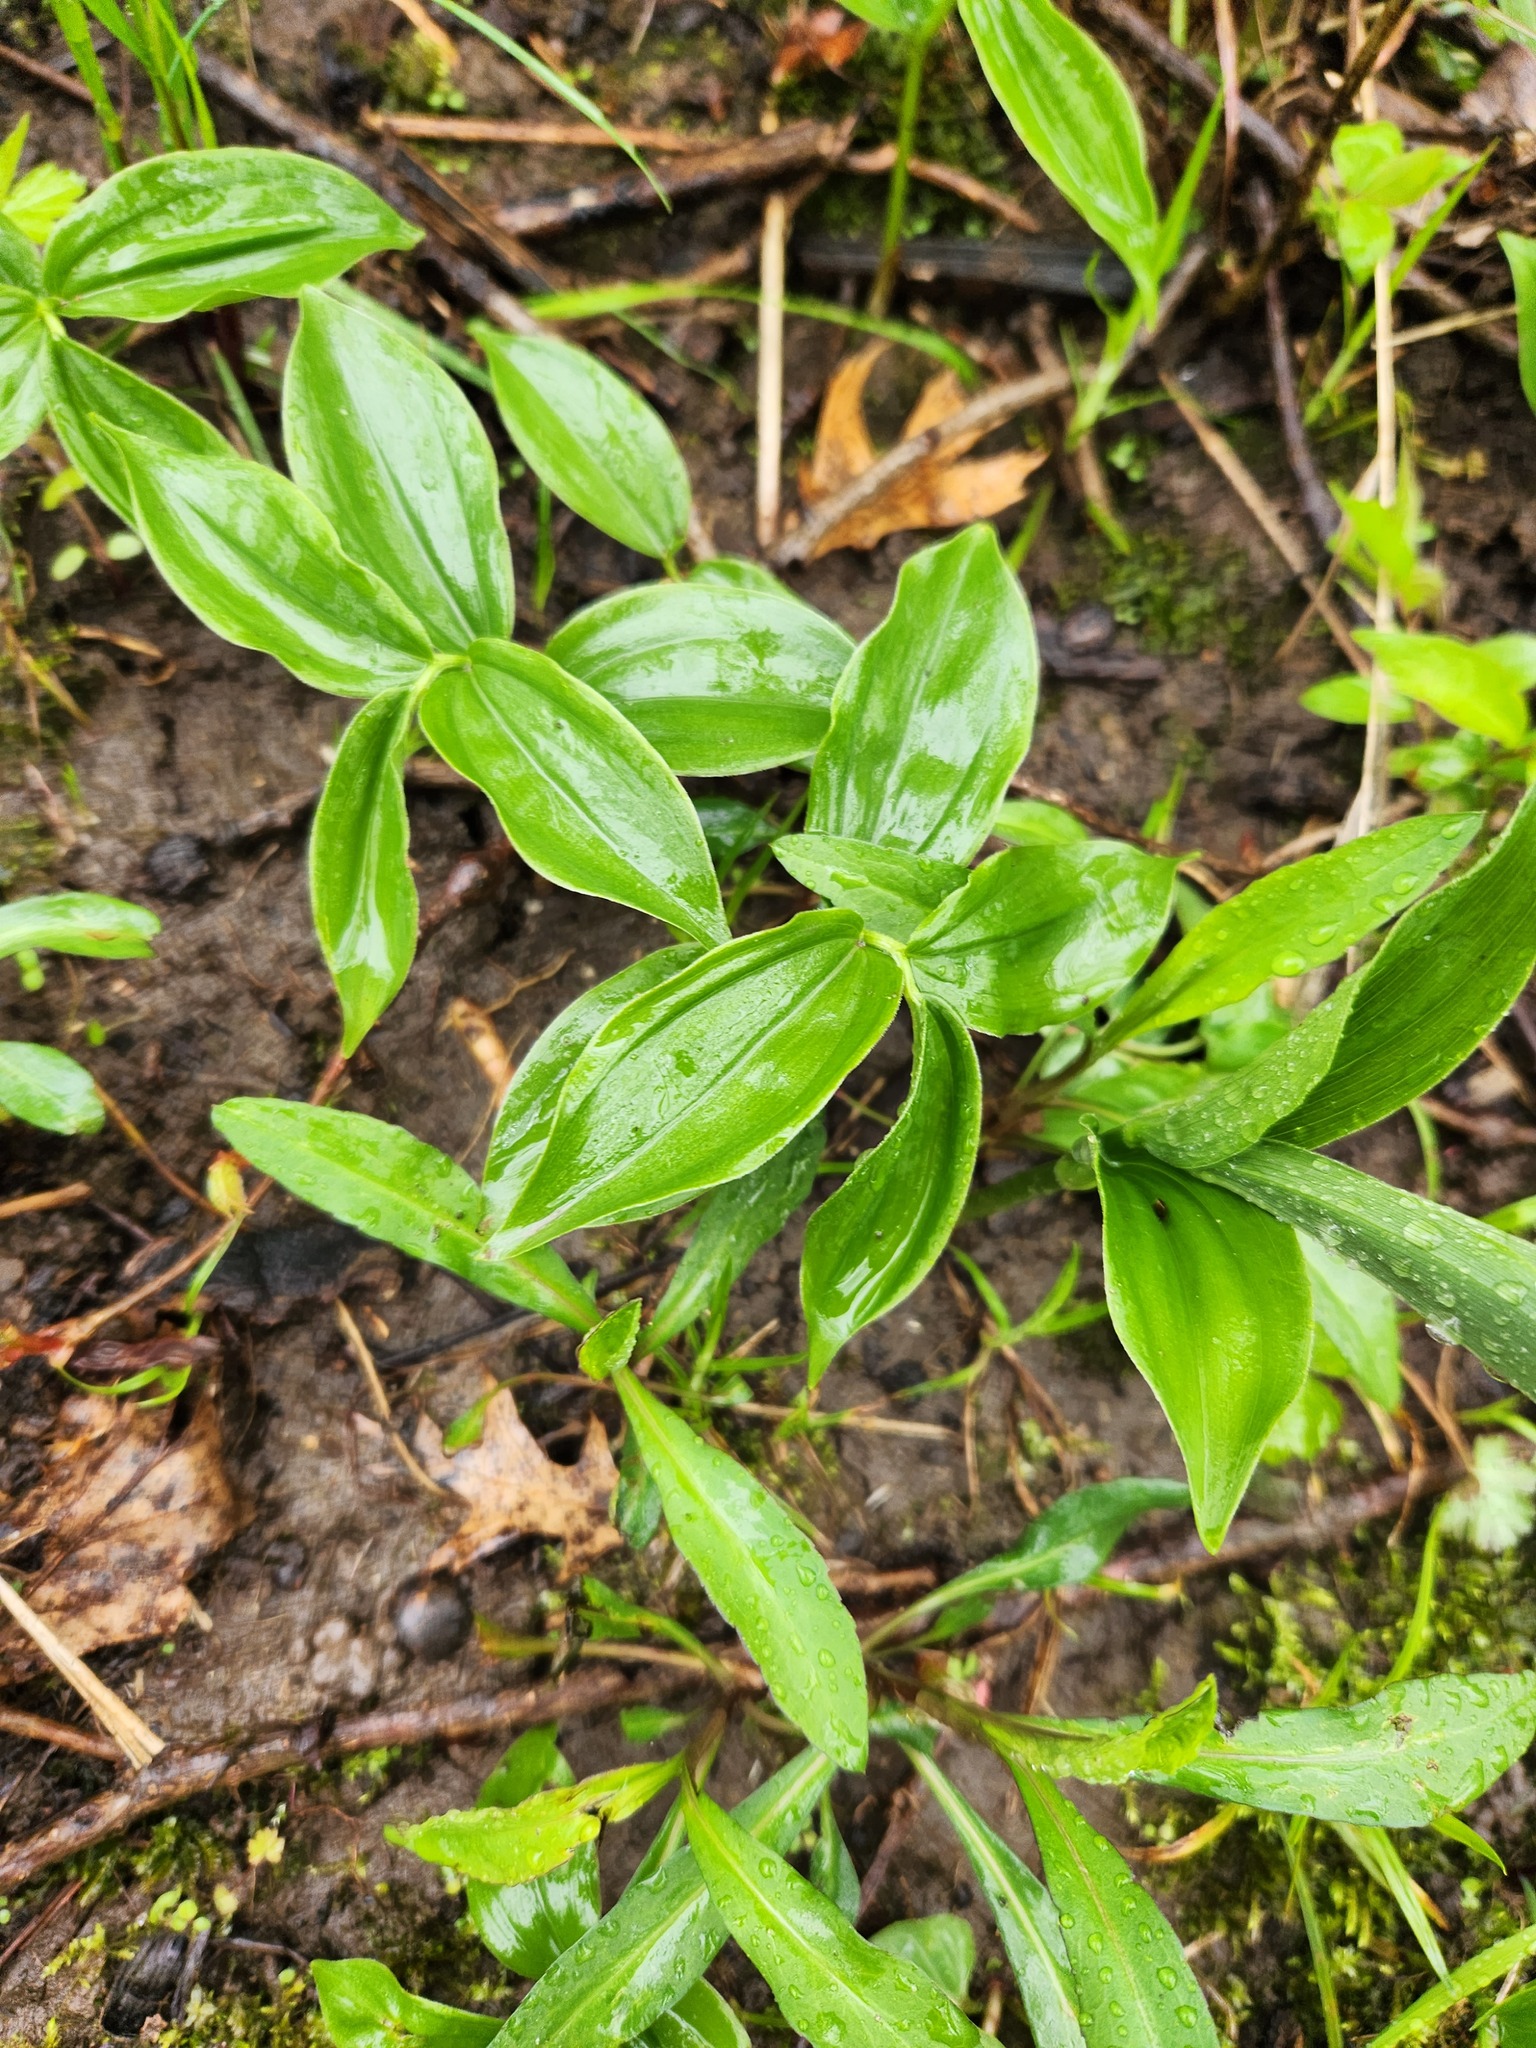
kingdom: Plantae
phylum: Tracheophyta
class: Liliopsida
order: Asparagales
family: Asparagaceae
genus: Maianthemum
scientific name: Maianthemum racemosum
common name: False spikenard
